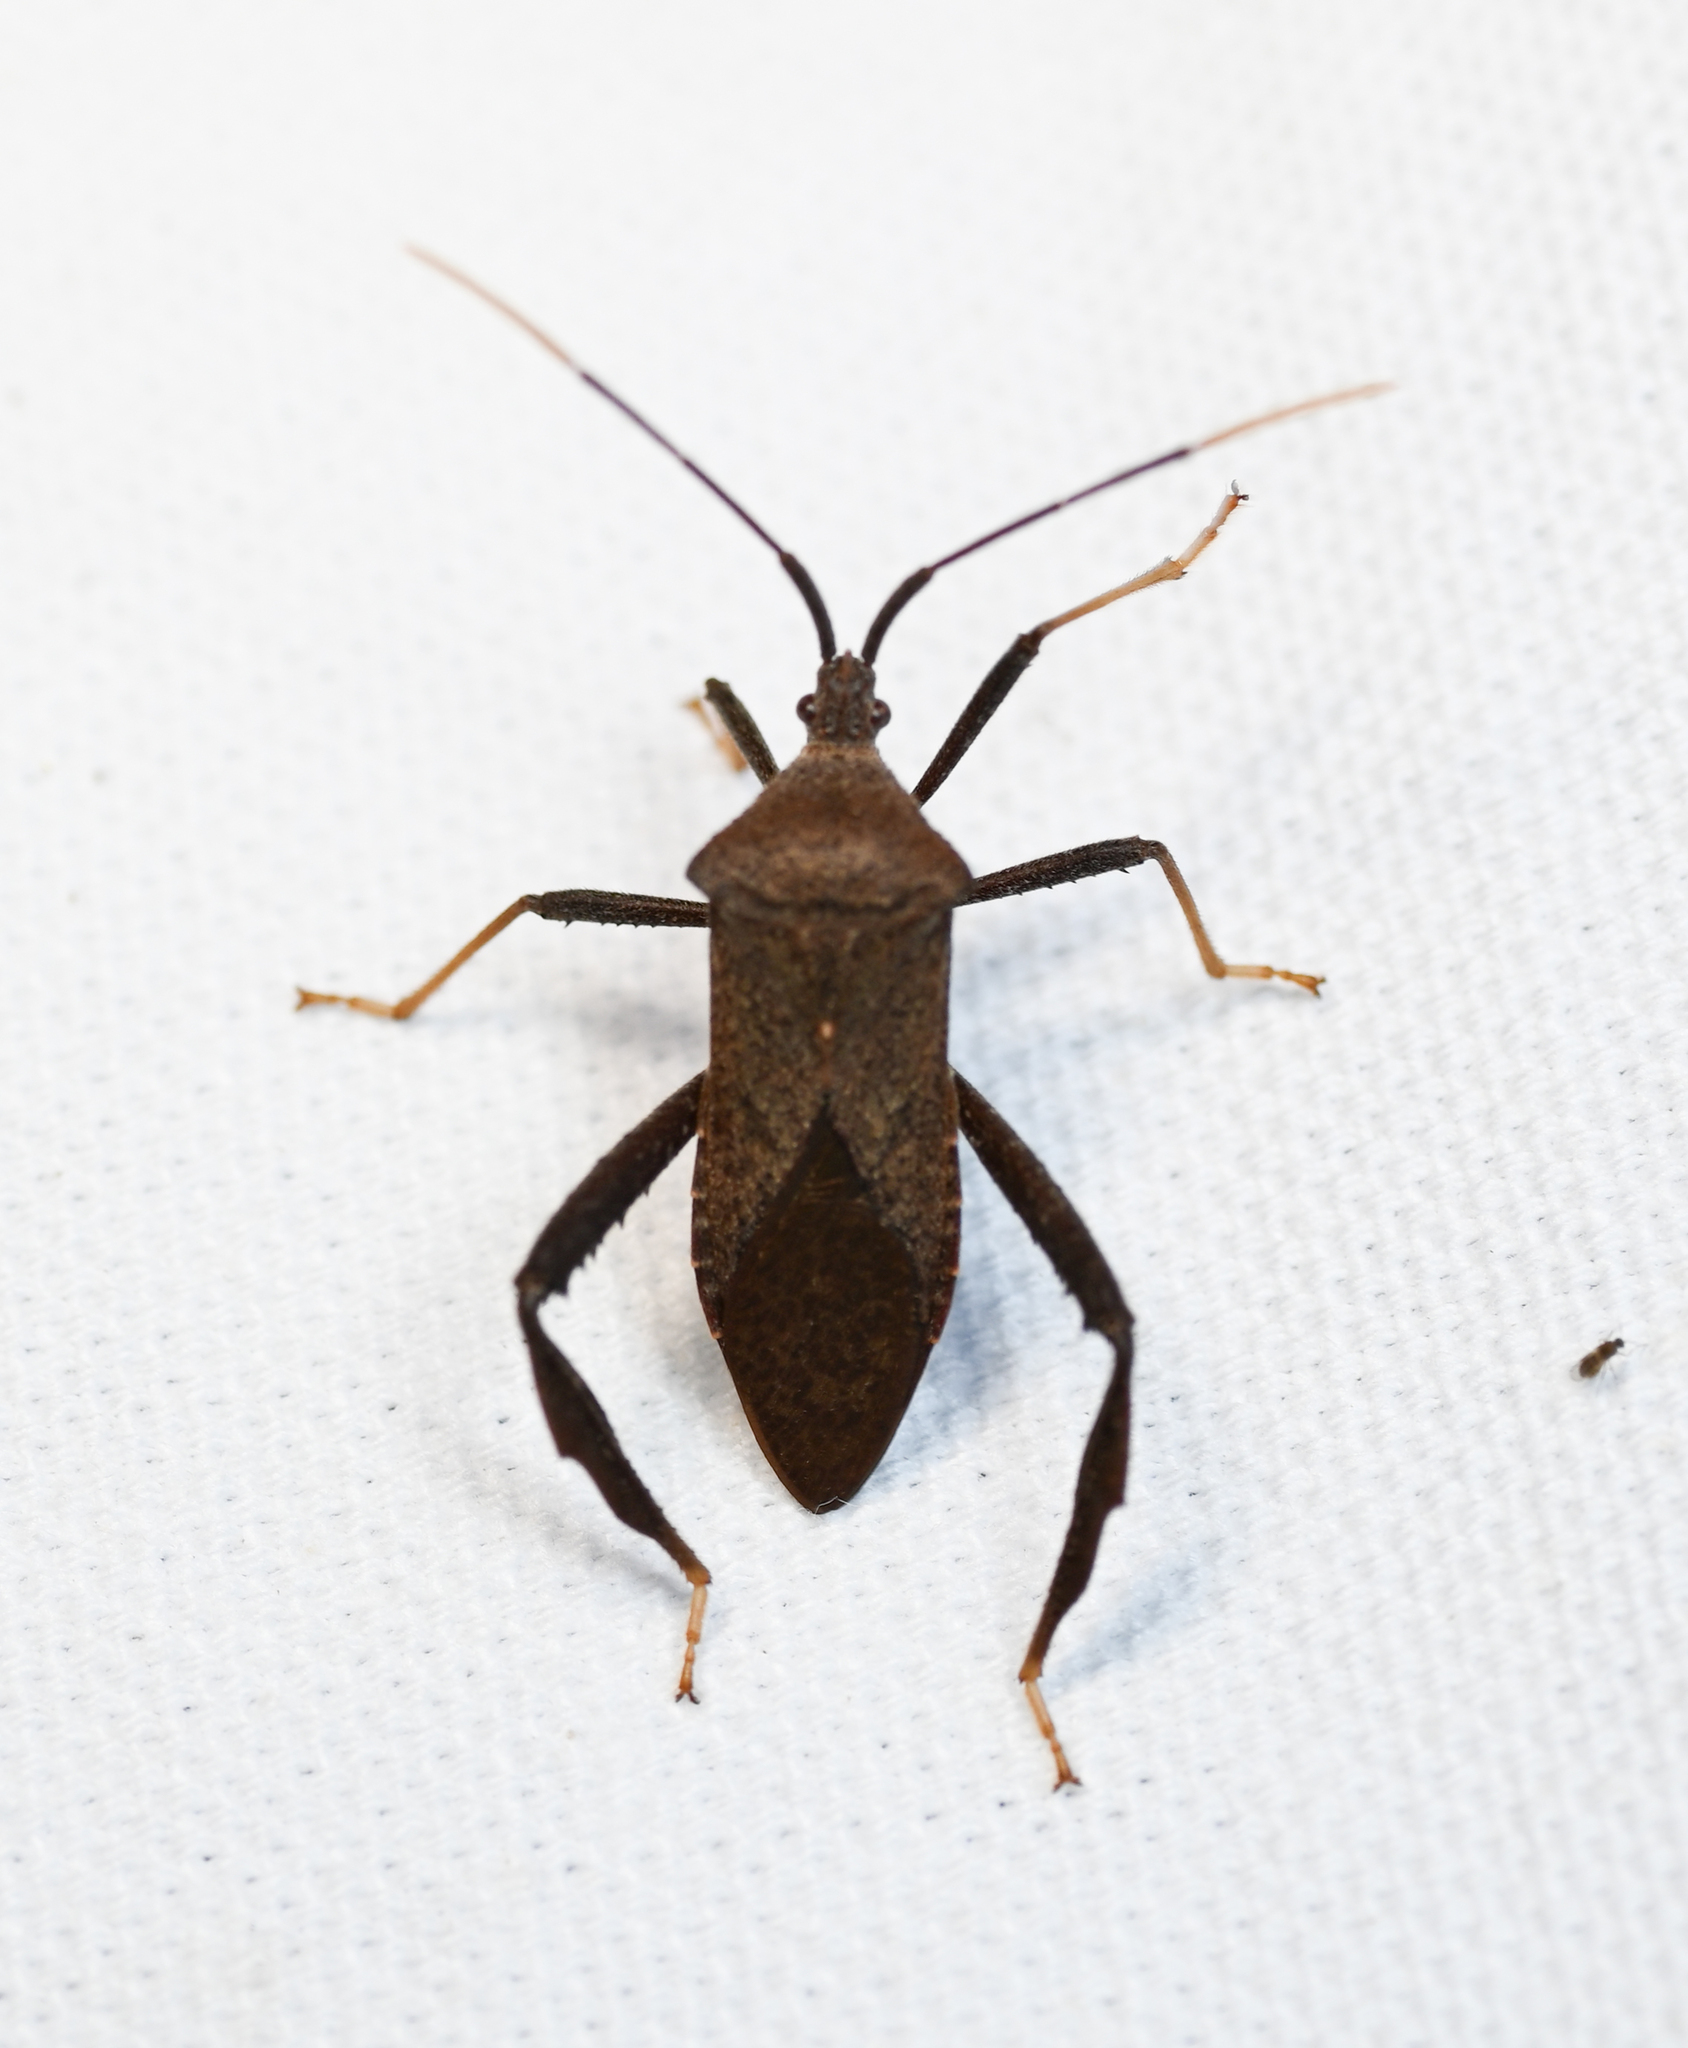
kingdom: Animalia
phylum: Arthropoda
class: Insecta
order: Hemiptera
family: Coreidae
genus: Acanthocephala
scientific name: Acanthocephala terminalis
